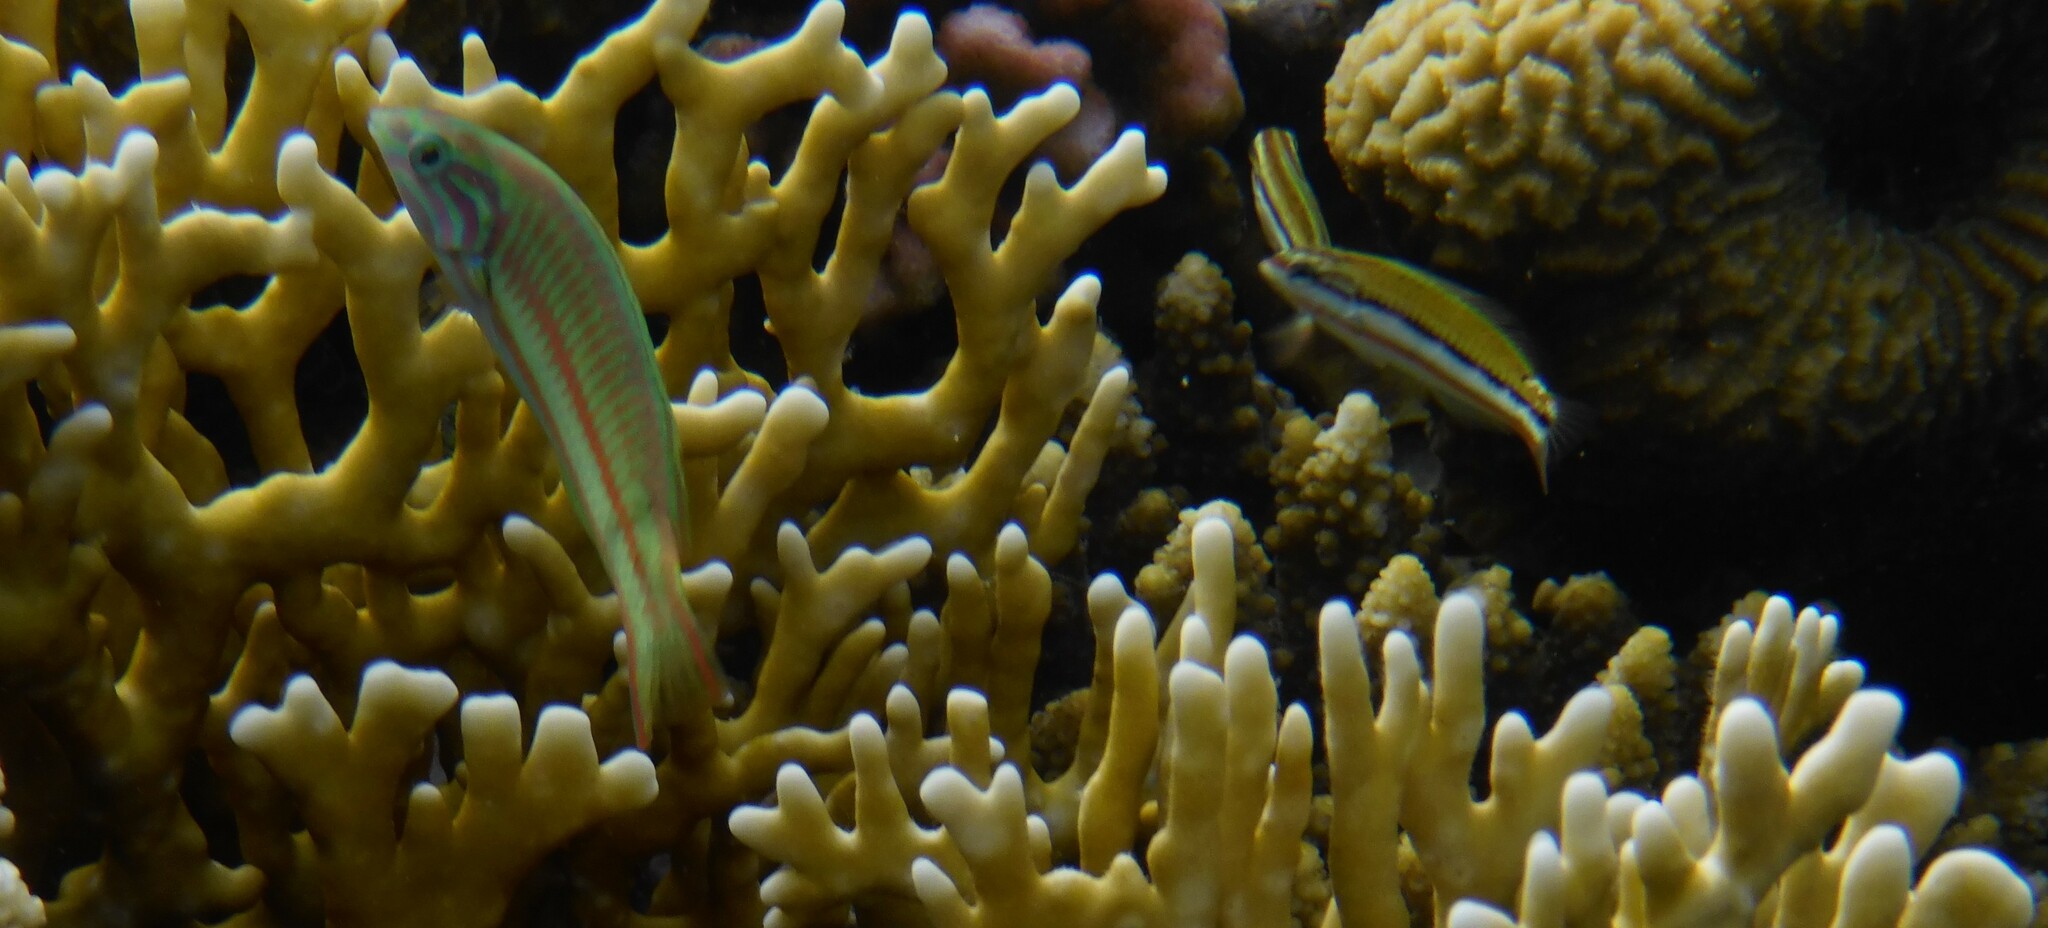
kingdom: Animalia
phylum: Chordata
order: Perciformes
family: Labridae
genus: Thalassoma
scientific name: Thalassoma rueppellii
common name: Klunzinger's wrasse
